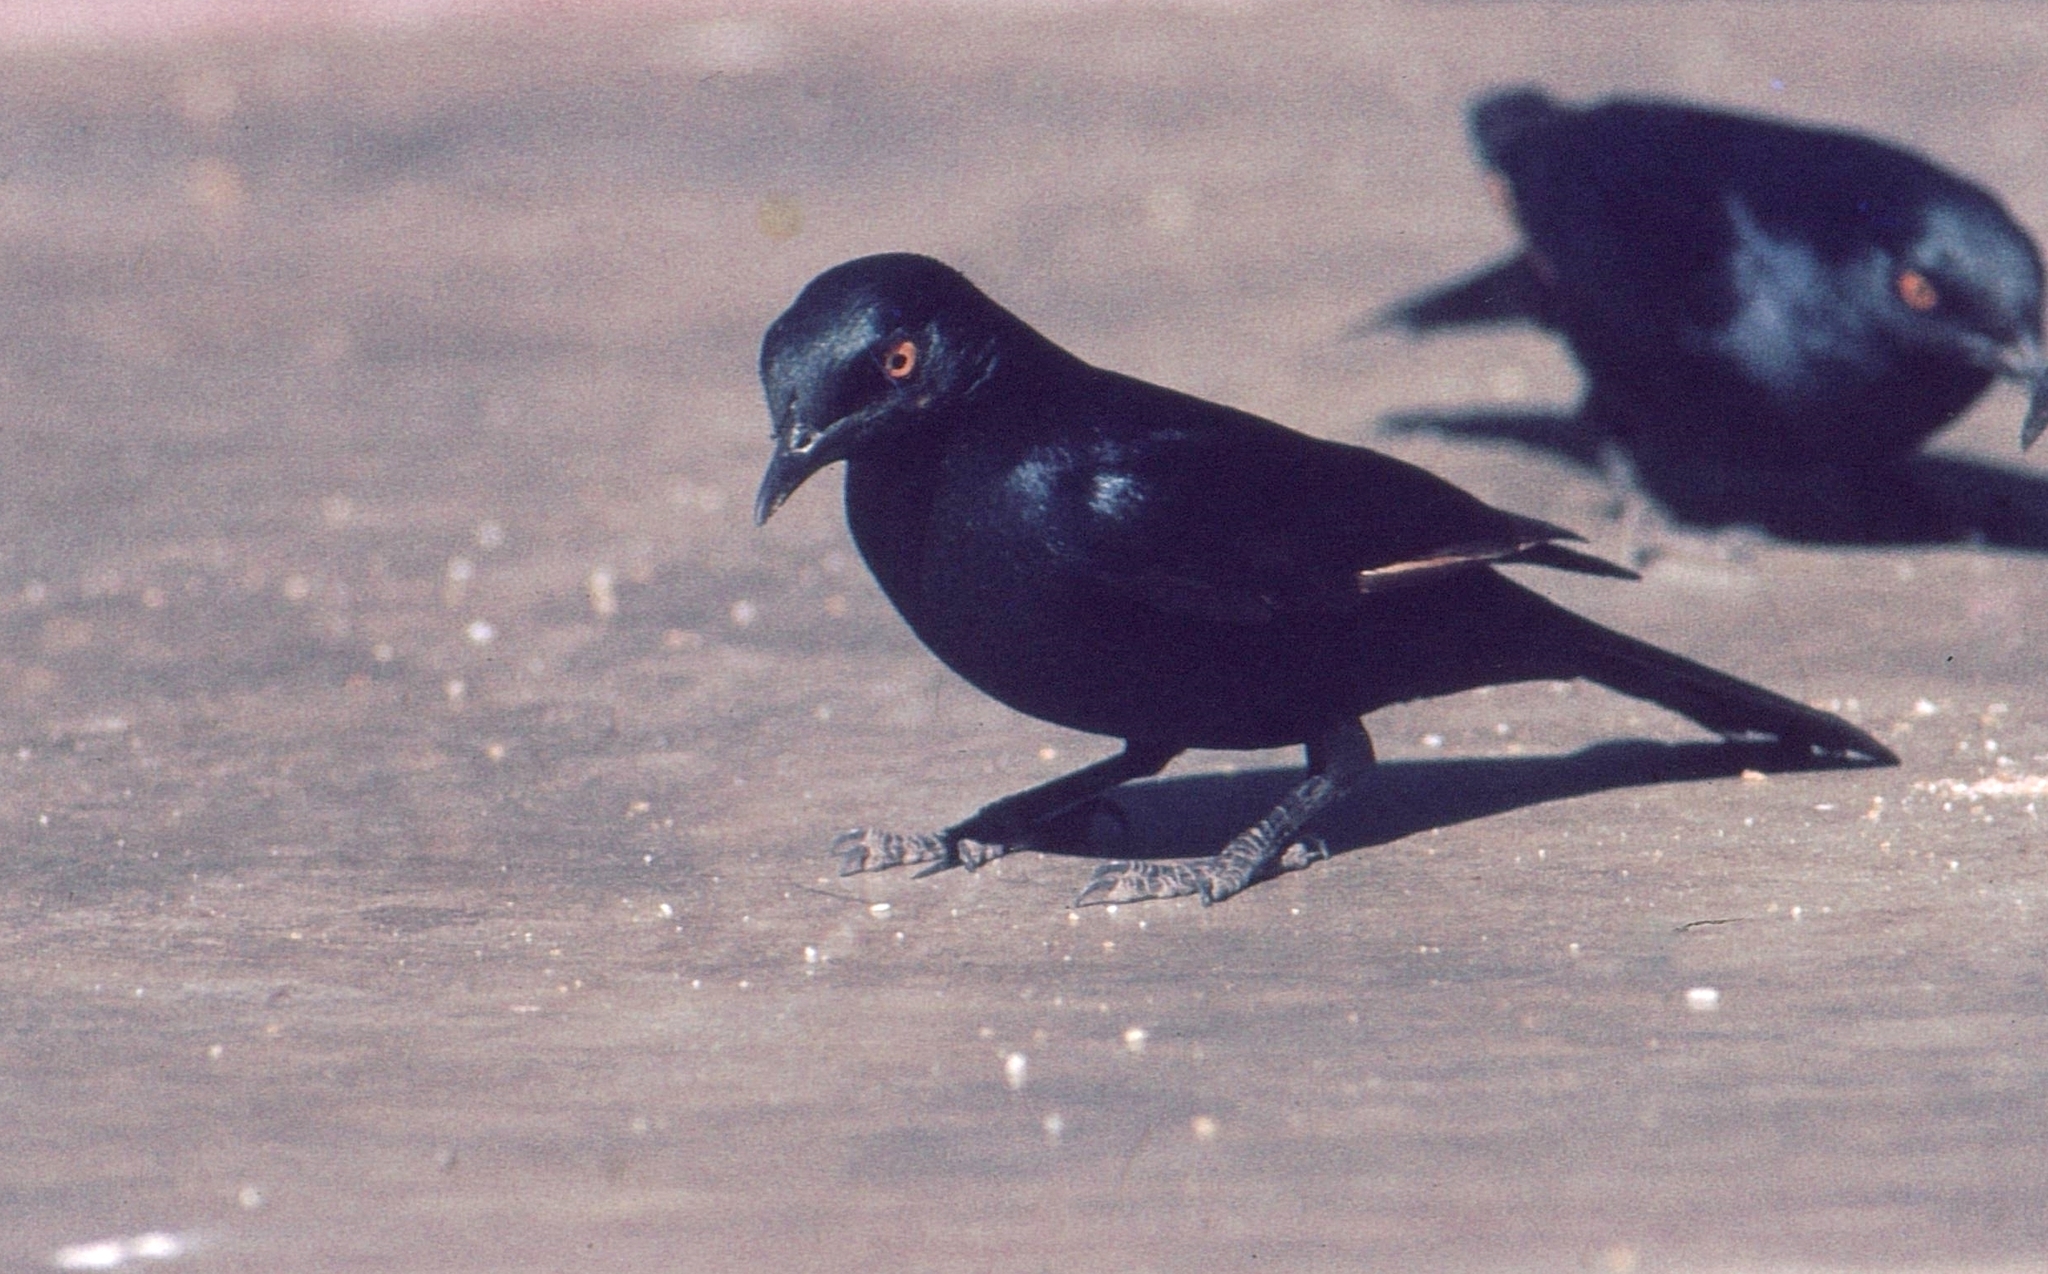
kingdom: Animalia
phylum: Chordata
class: Aves
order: Passeriformes
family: Sturnidae
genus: Onychognathus
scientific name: Onychognathus nabouroup
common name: Pale-winged starling
